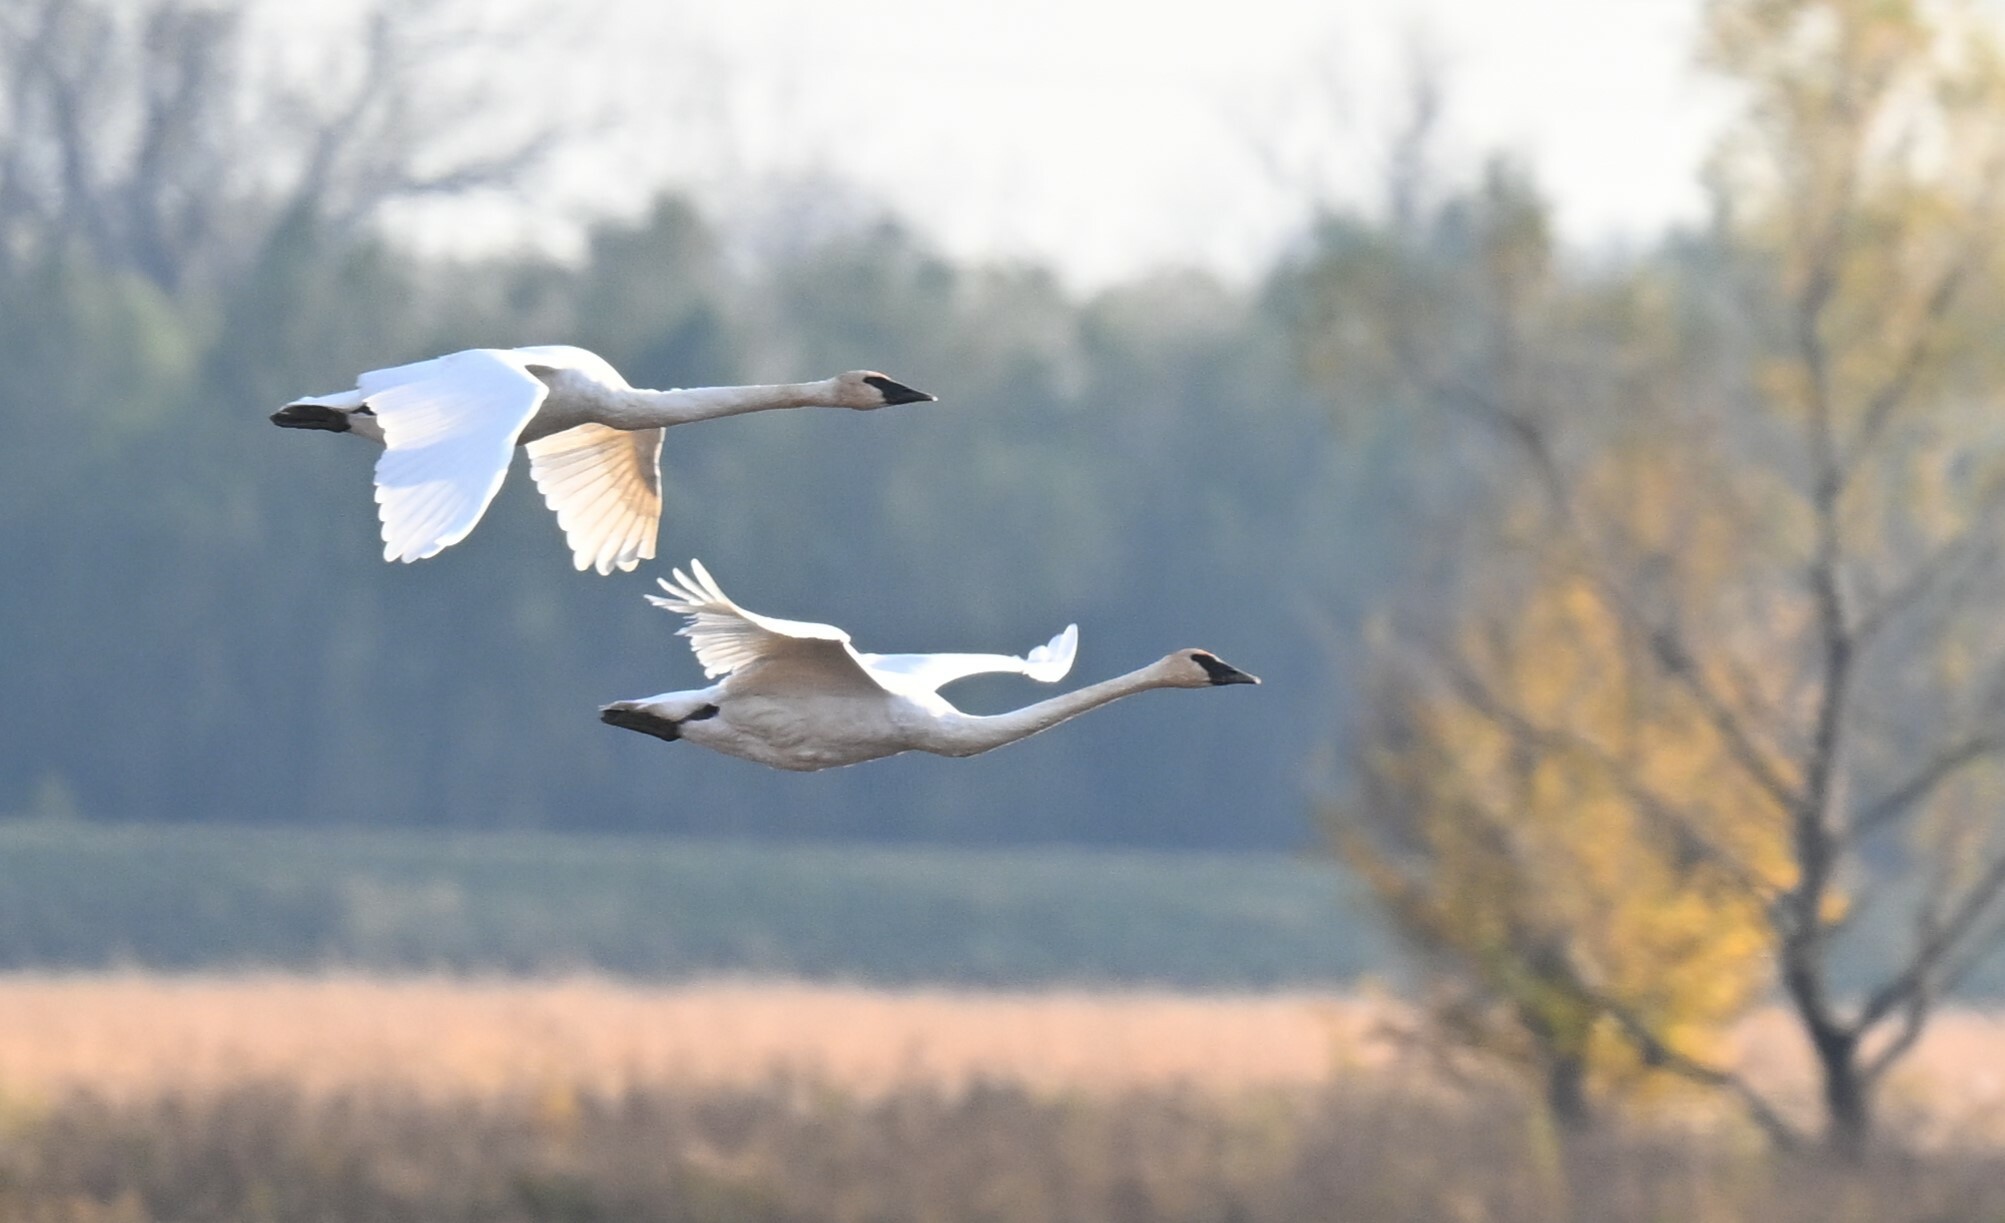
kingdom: Animalia
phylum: Chordata
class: Aves
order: Anseriformes
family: Anatidae
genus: Cygnus
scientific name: Cygnus buccinator
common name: Trumpeter swan
